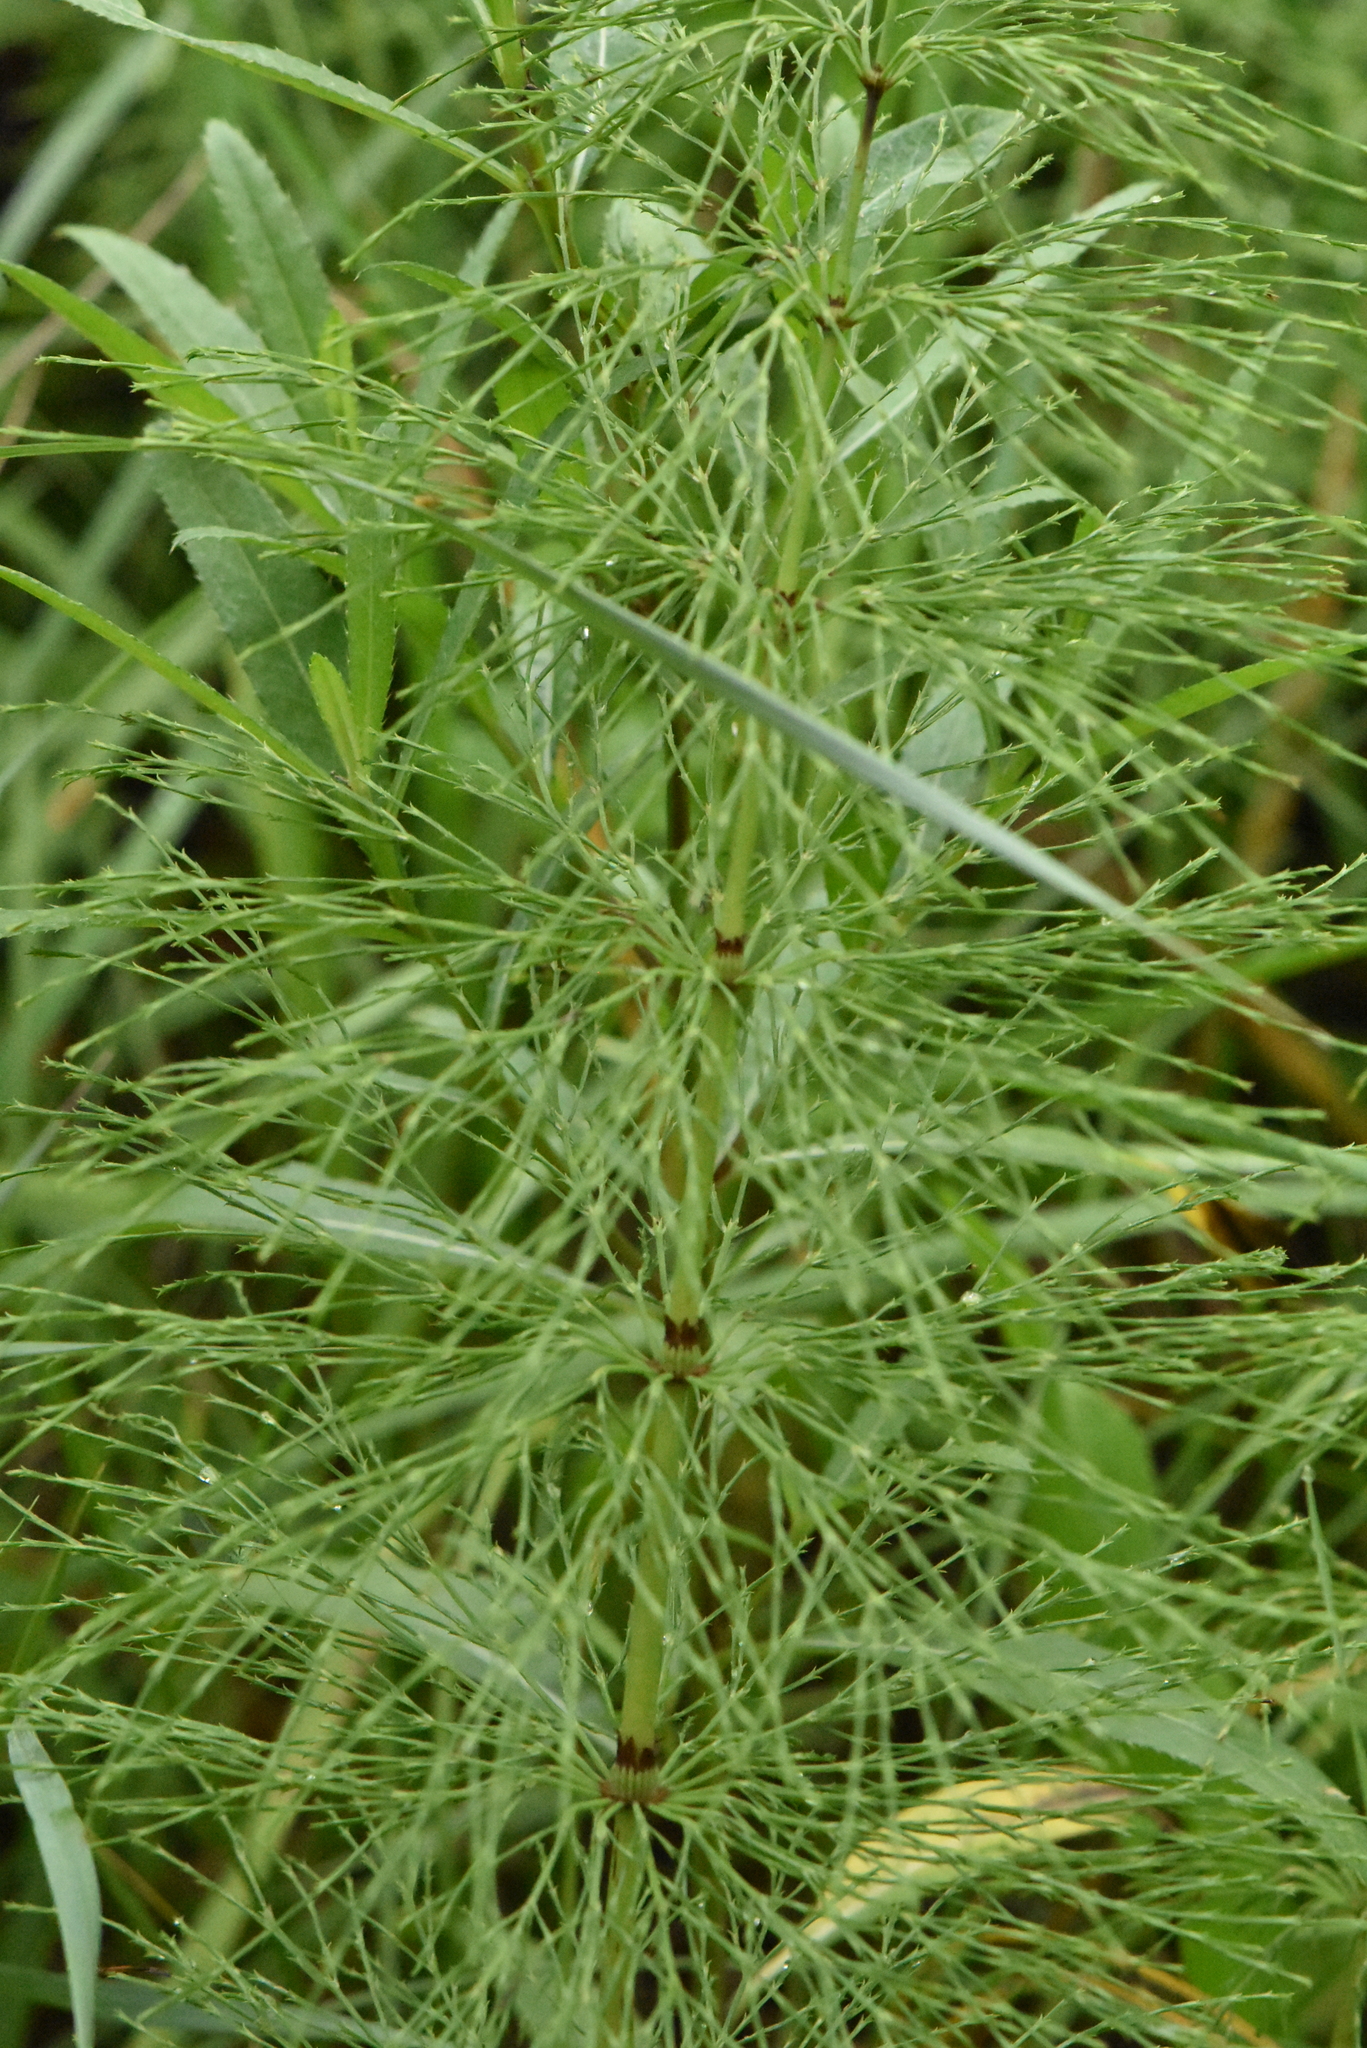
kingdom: Plantae
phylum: Tracheophyta
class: Polypodiopsida
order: Equisetales
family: Equisetaceae
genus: Equisetum
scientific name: Equisetum sylvaticum
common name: Wood horsetail
